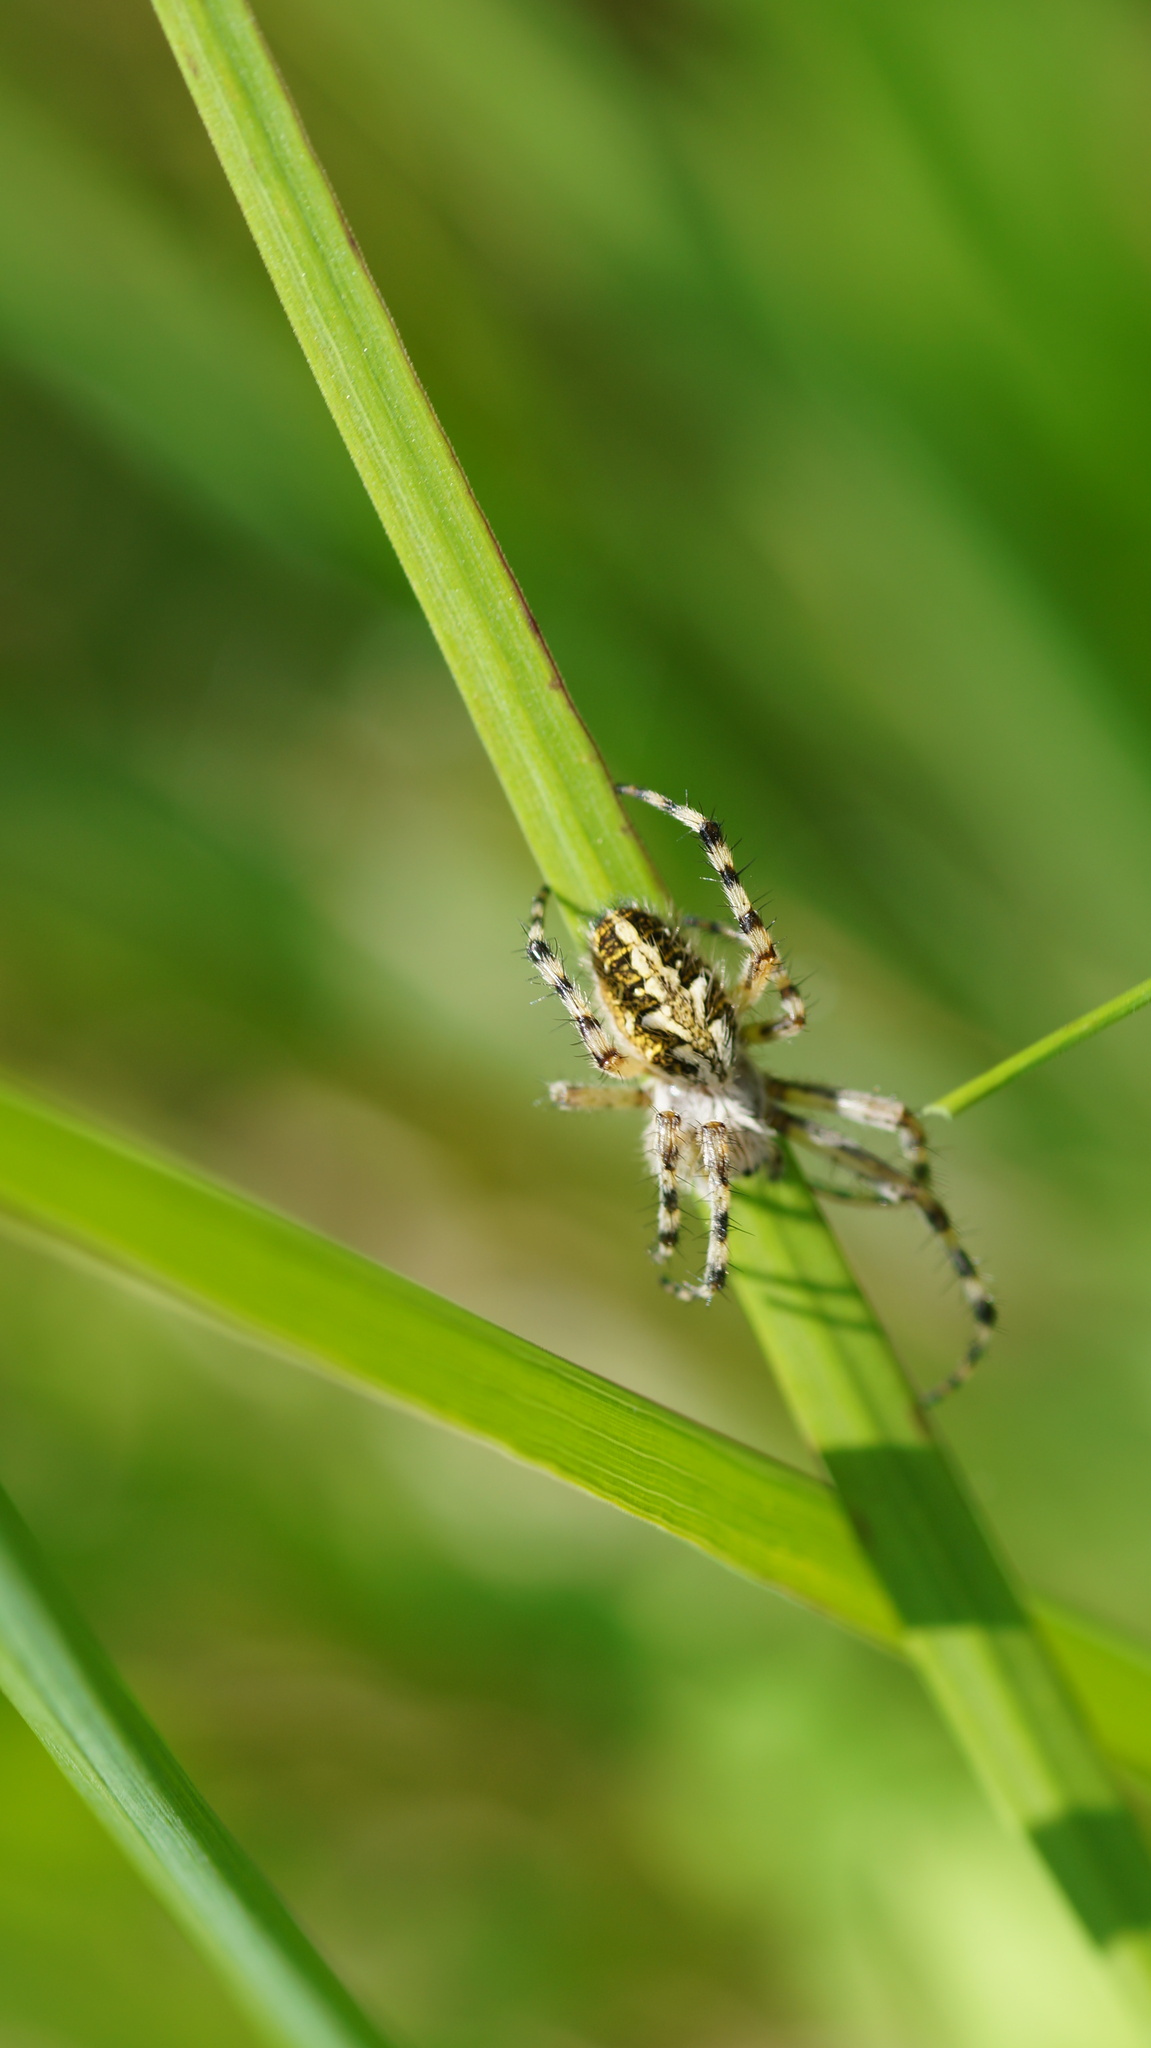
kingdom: Animalia
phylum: Arthropoda
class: Arachnida
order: Araneae
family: Araneidae
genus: Aculepeira
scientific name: Aculepeira ceropegia
